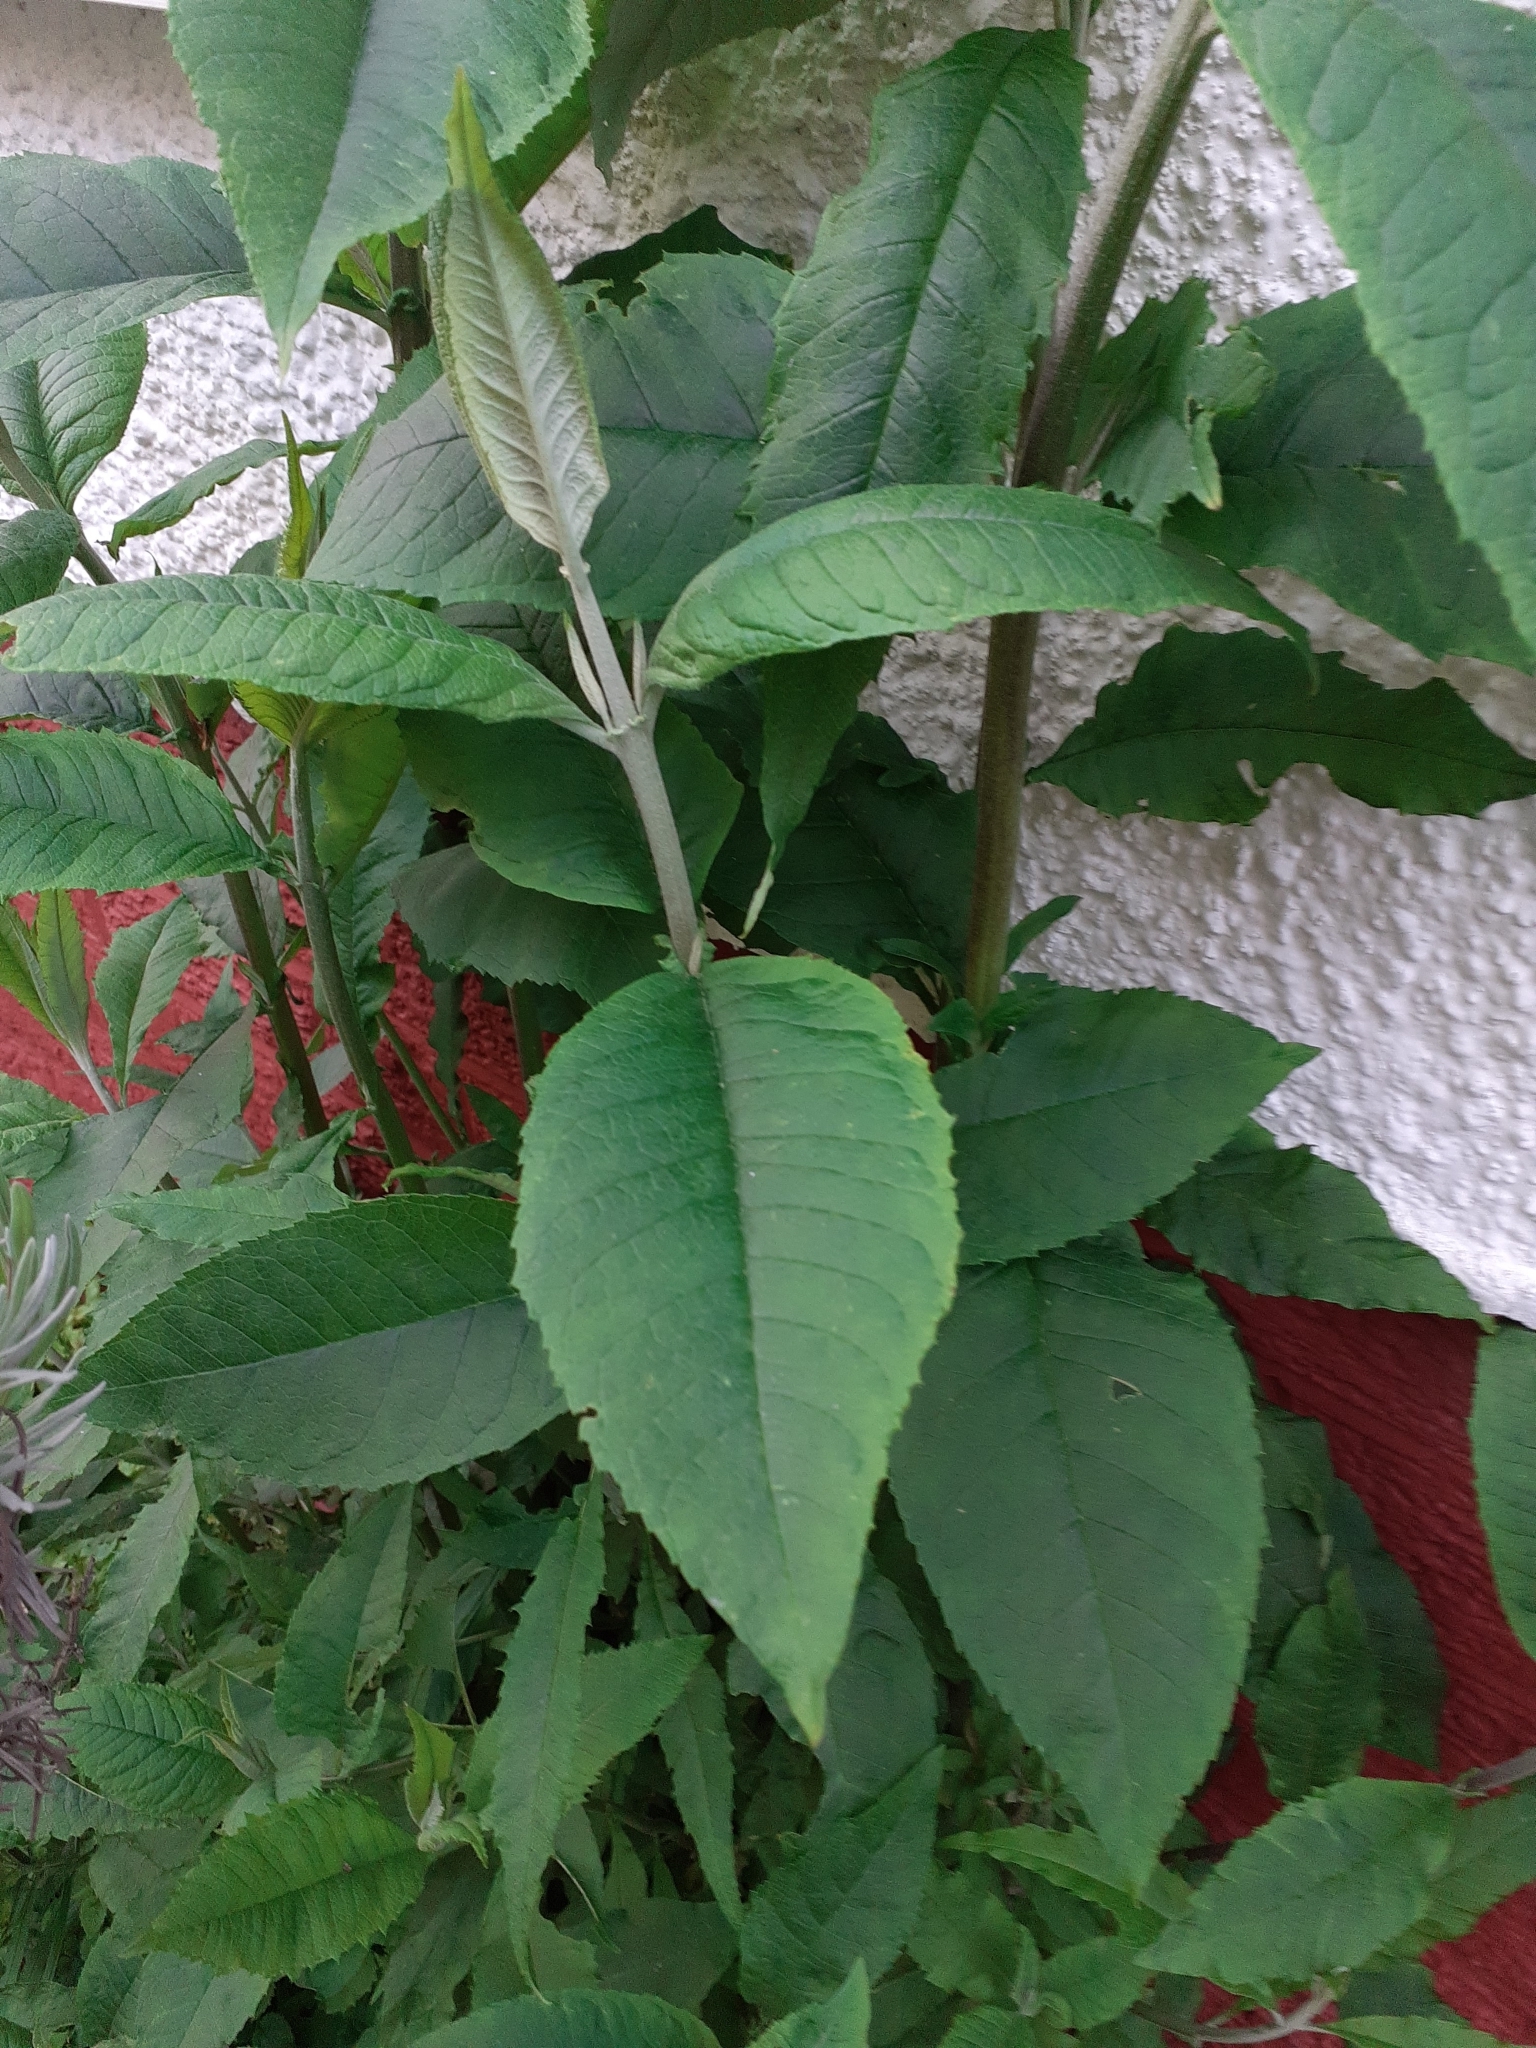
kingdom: Plantae
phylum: Tracheophyta
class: Magnoliopsida
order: Lamiales
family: Scrophulariaceae
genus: Buddleja
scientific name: Buddleja davidii
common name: Butterfly-bush
